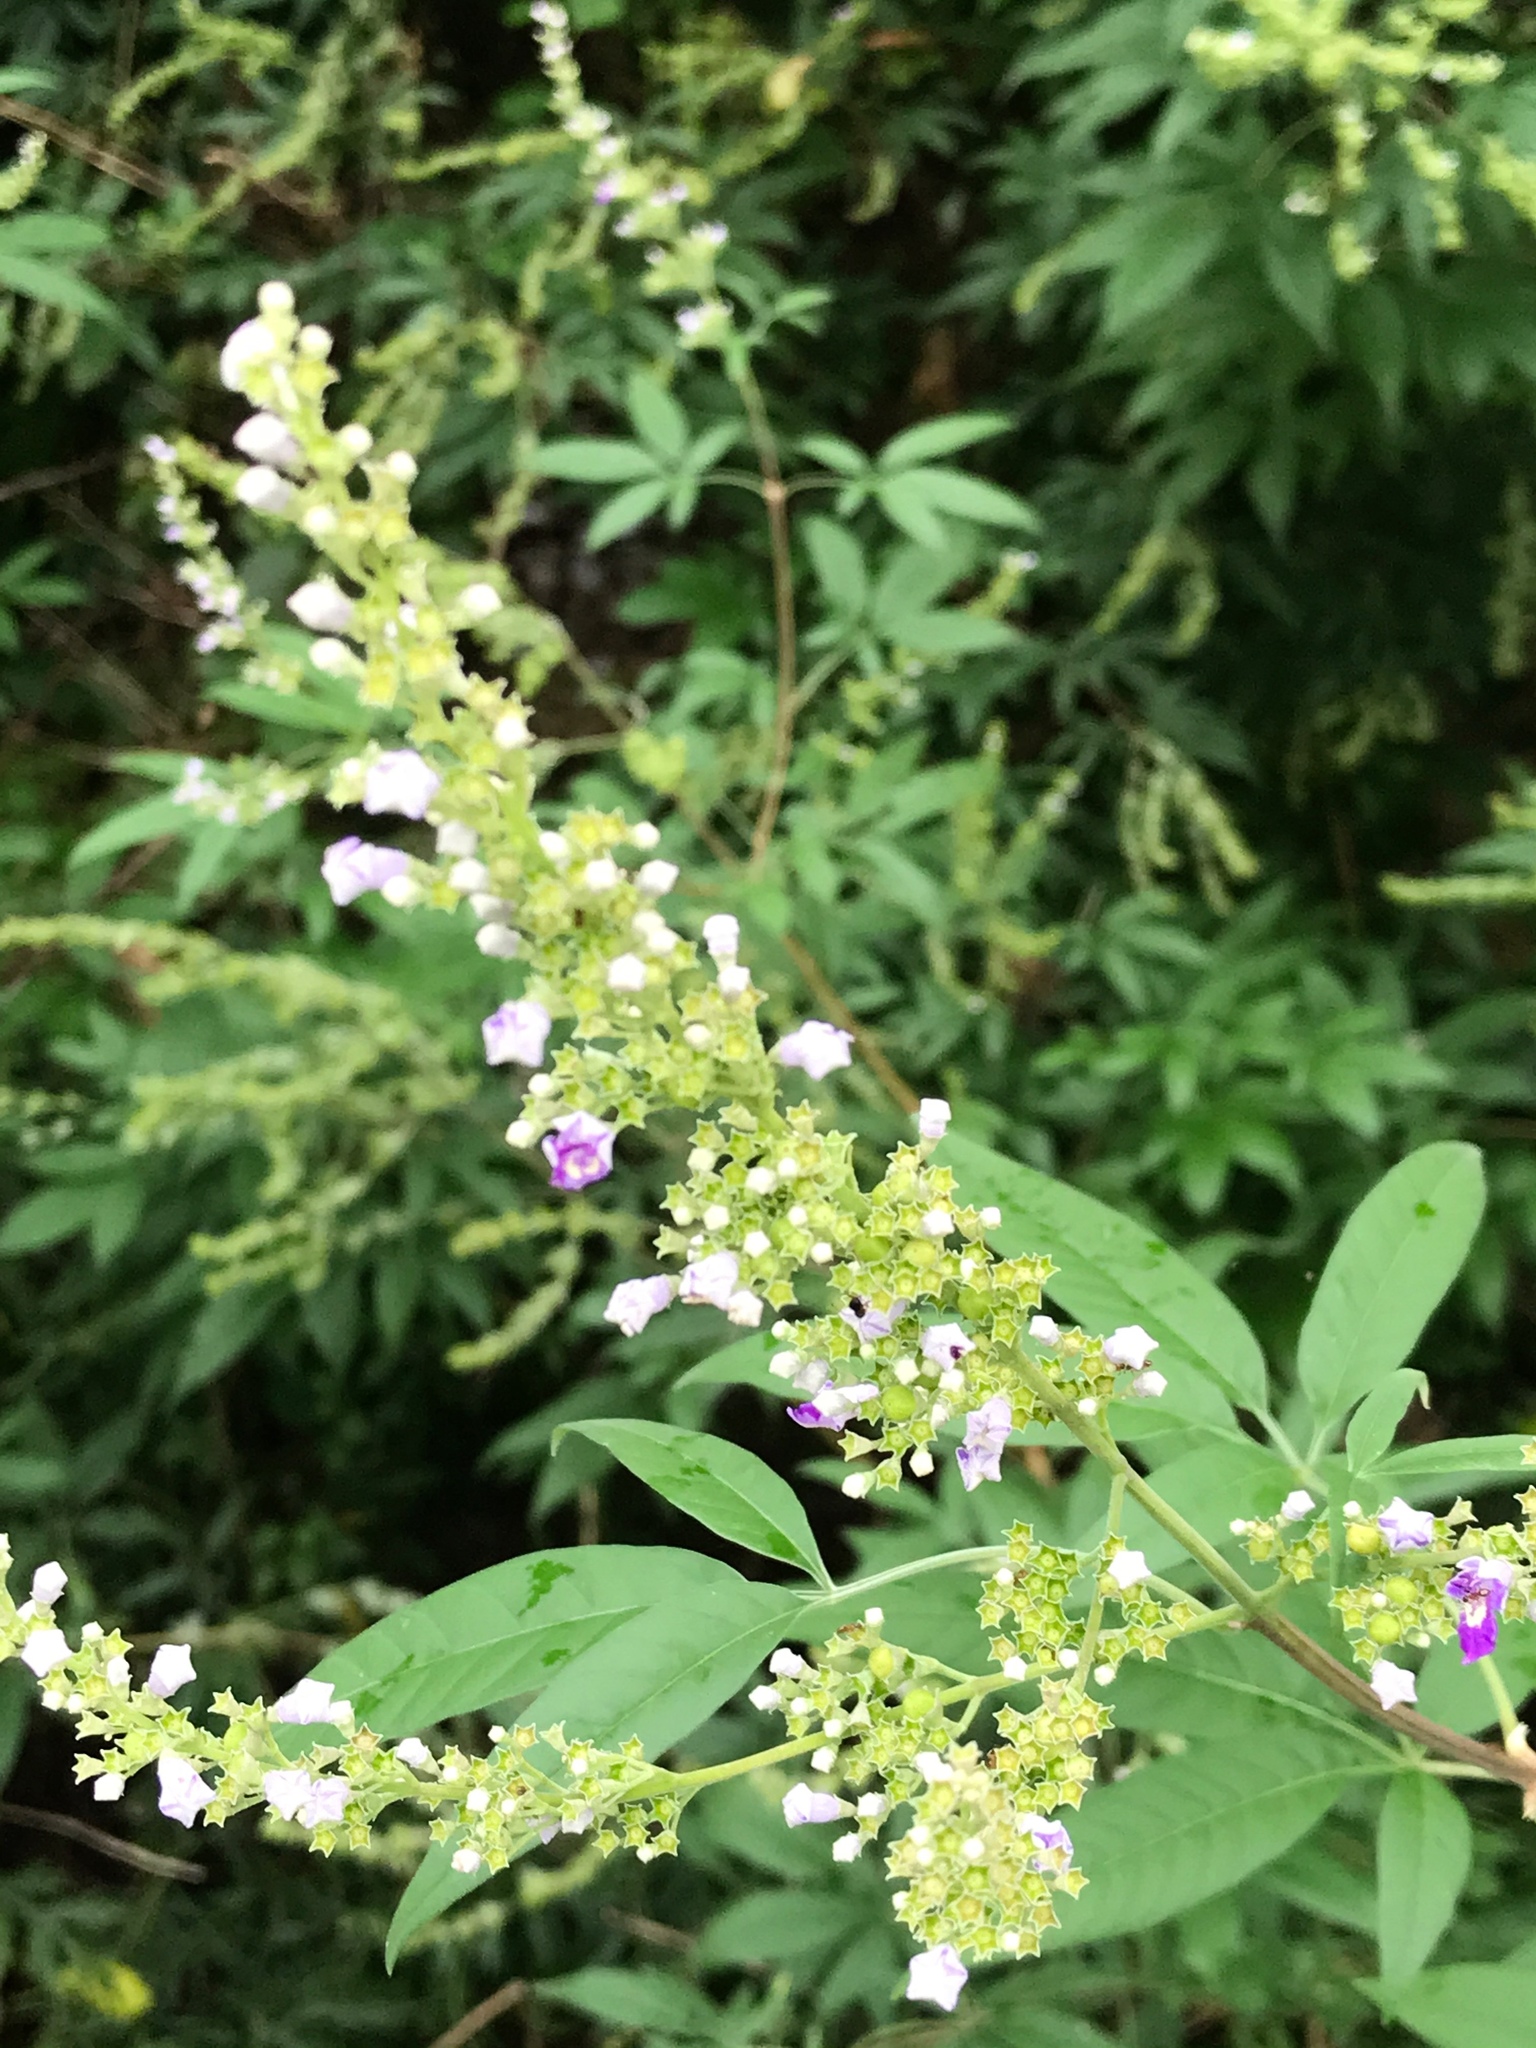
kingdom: Plantae
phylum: Tracheophyta
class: Magnoliopsida
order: Lamiales
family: Lamiaceae
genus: Vitex
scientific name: Vitex negundo
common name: Chinese chastetree
